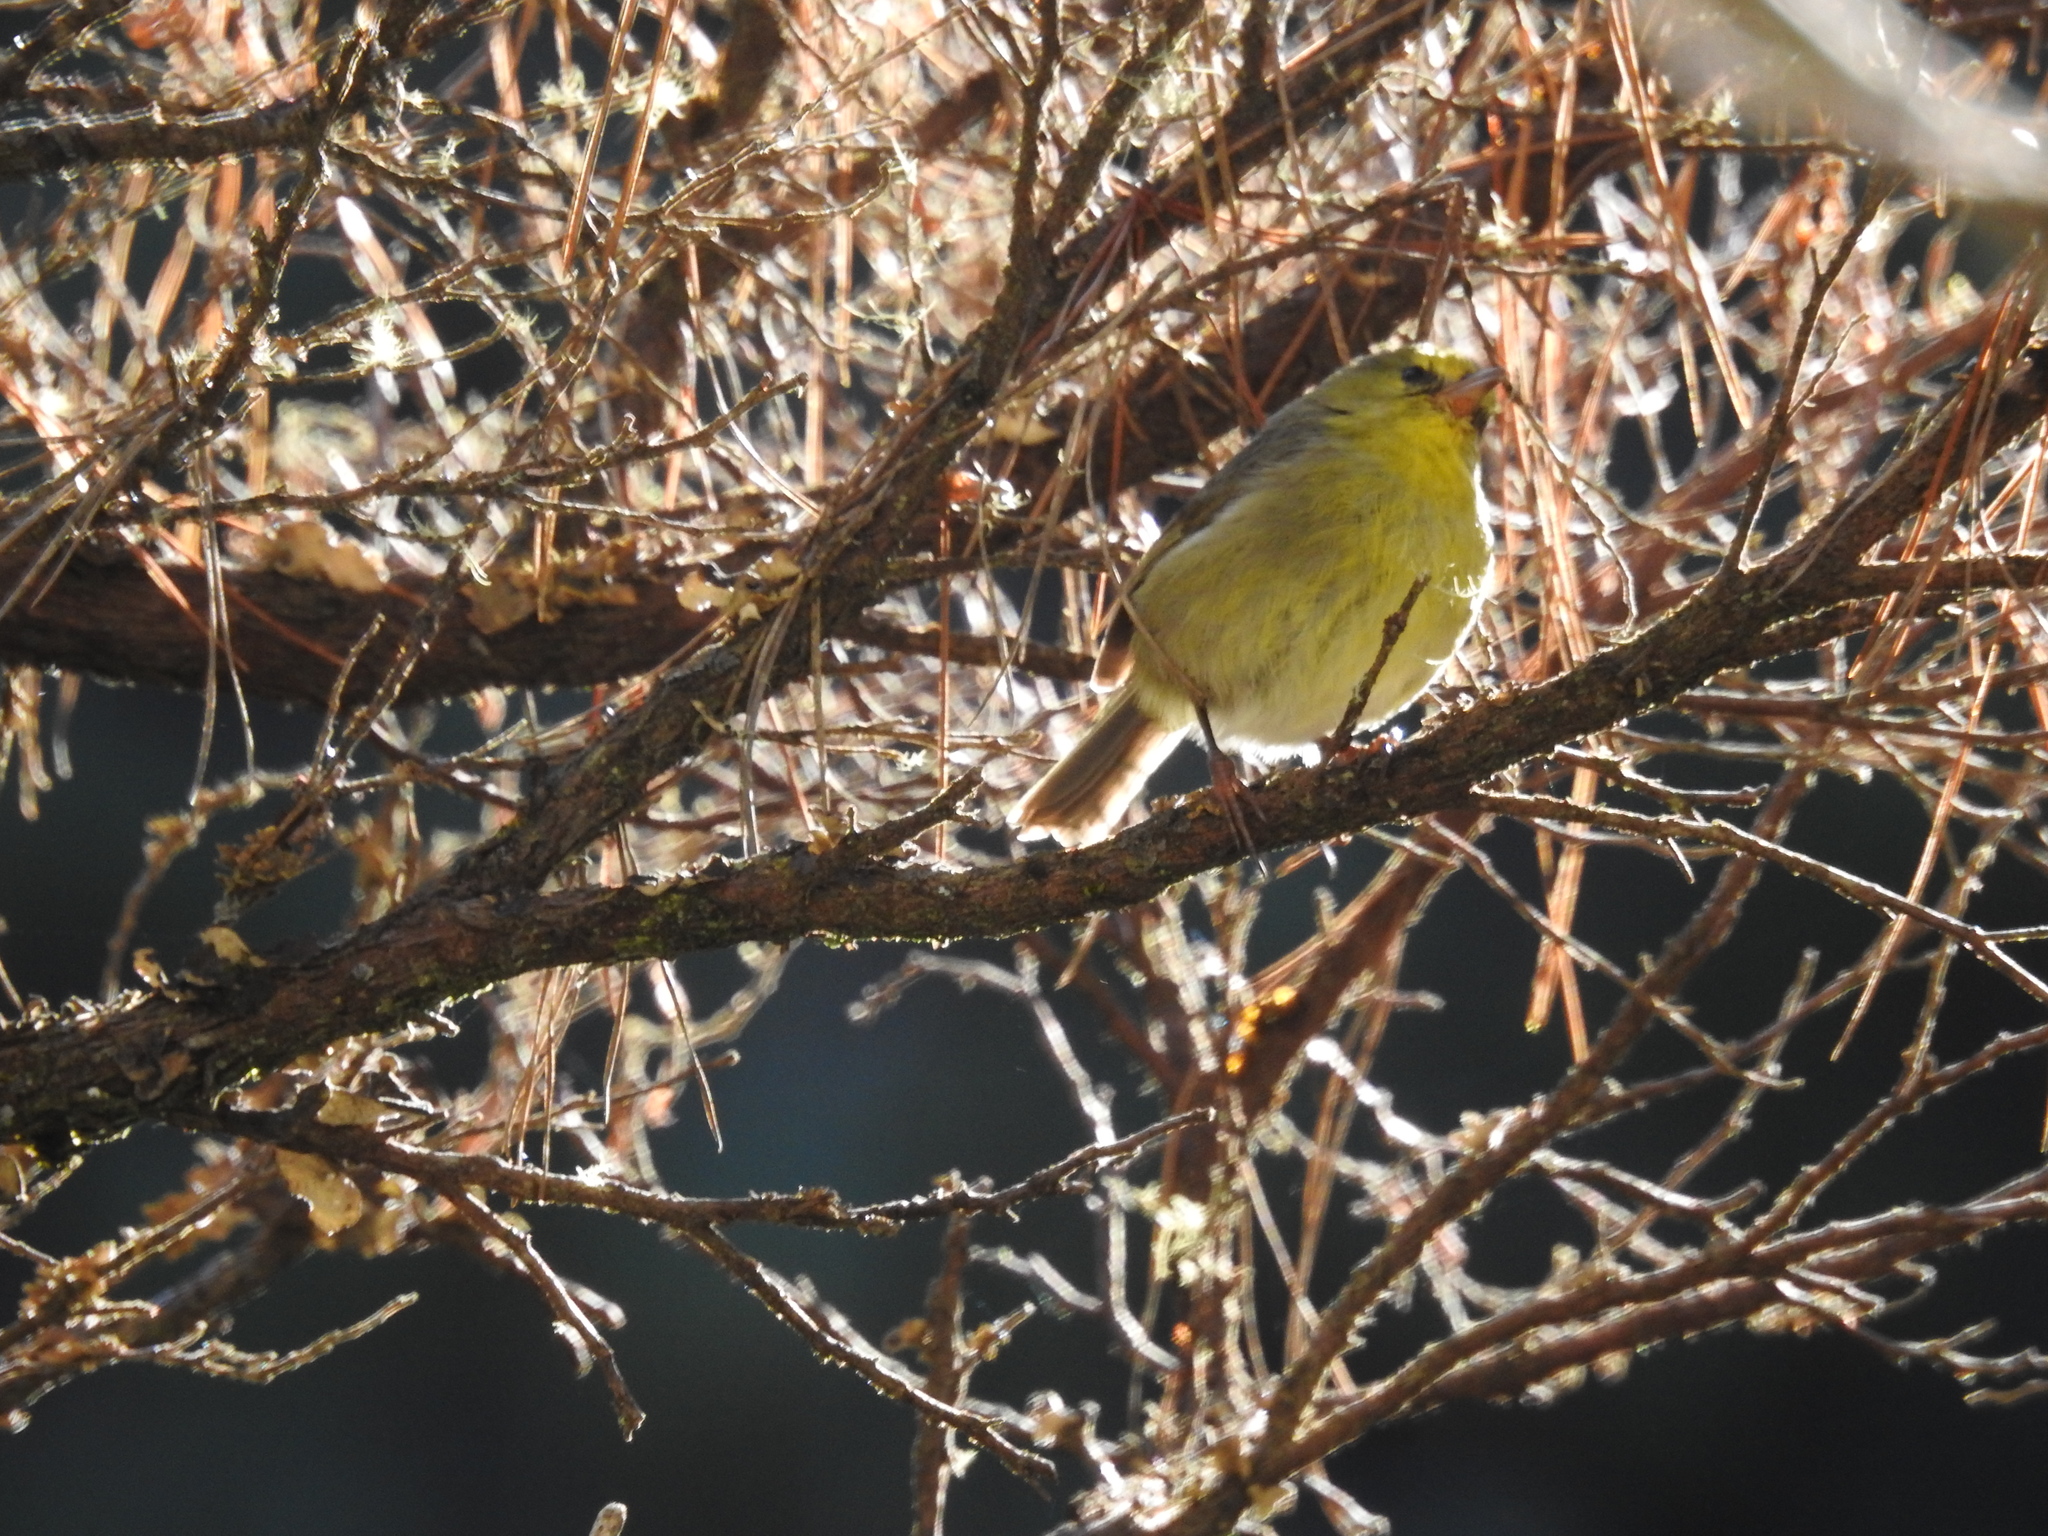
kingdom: Animalia
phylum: Chordata
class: Aves
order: Passeriformes
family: Fringillidae
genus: Paroreomyza
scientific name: Paroreomyza montana
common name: Maui alauahio
